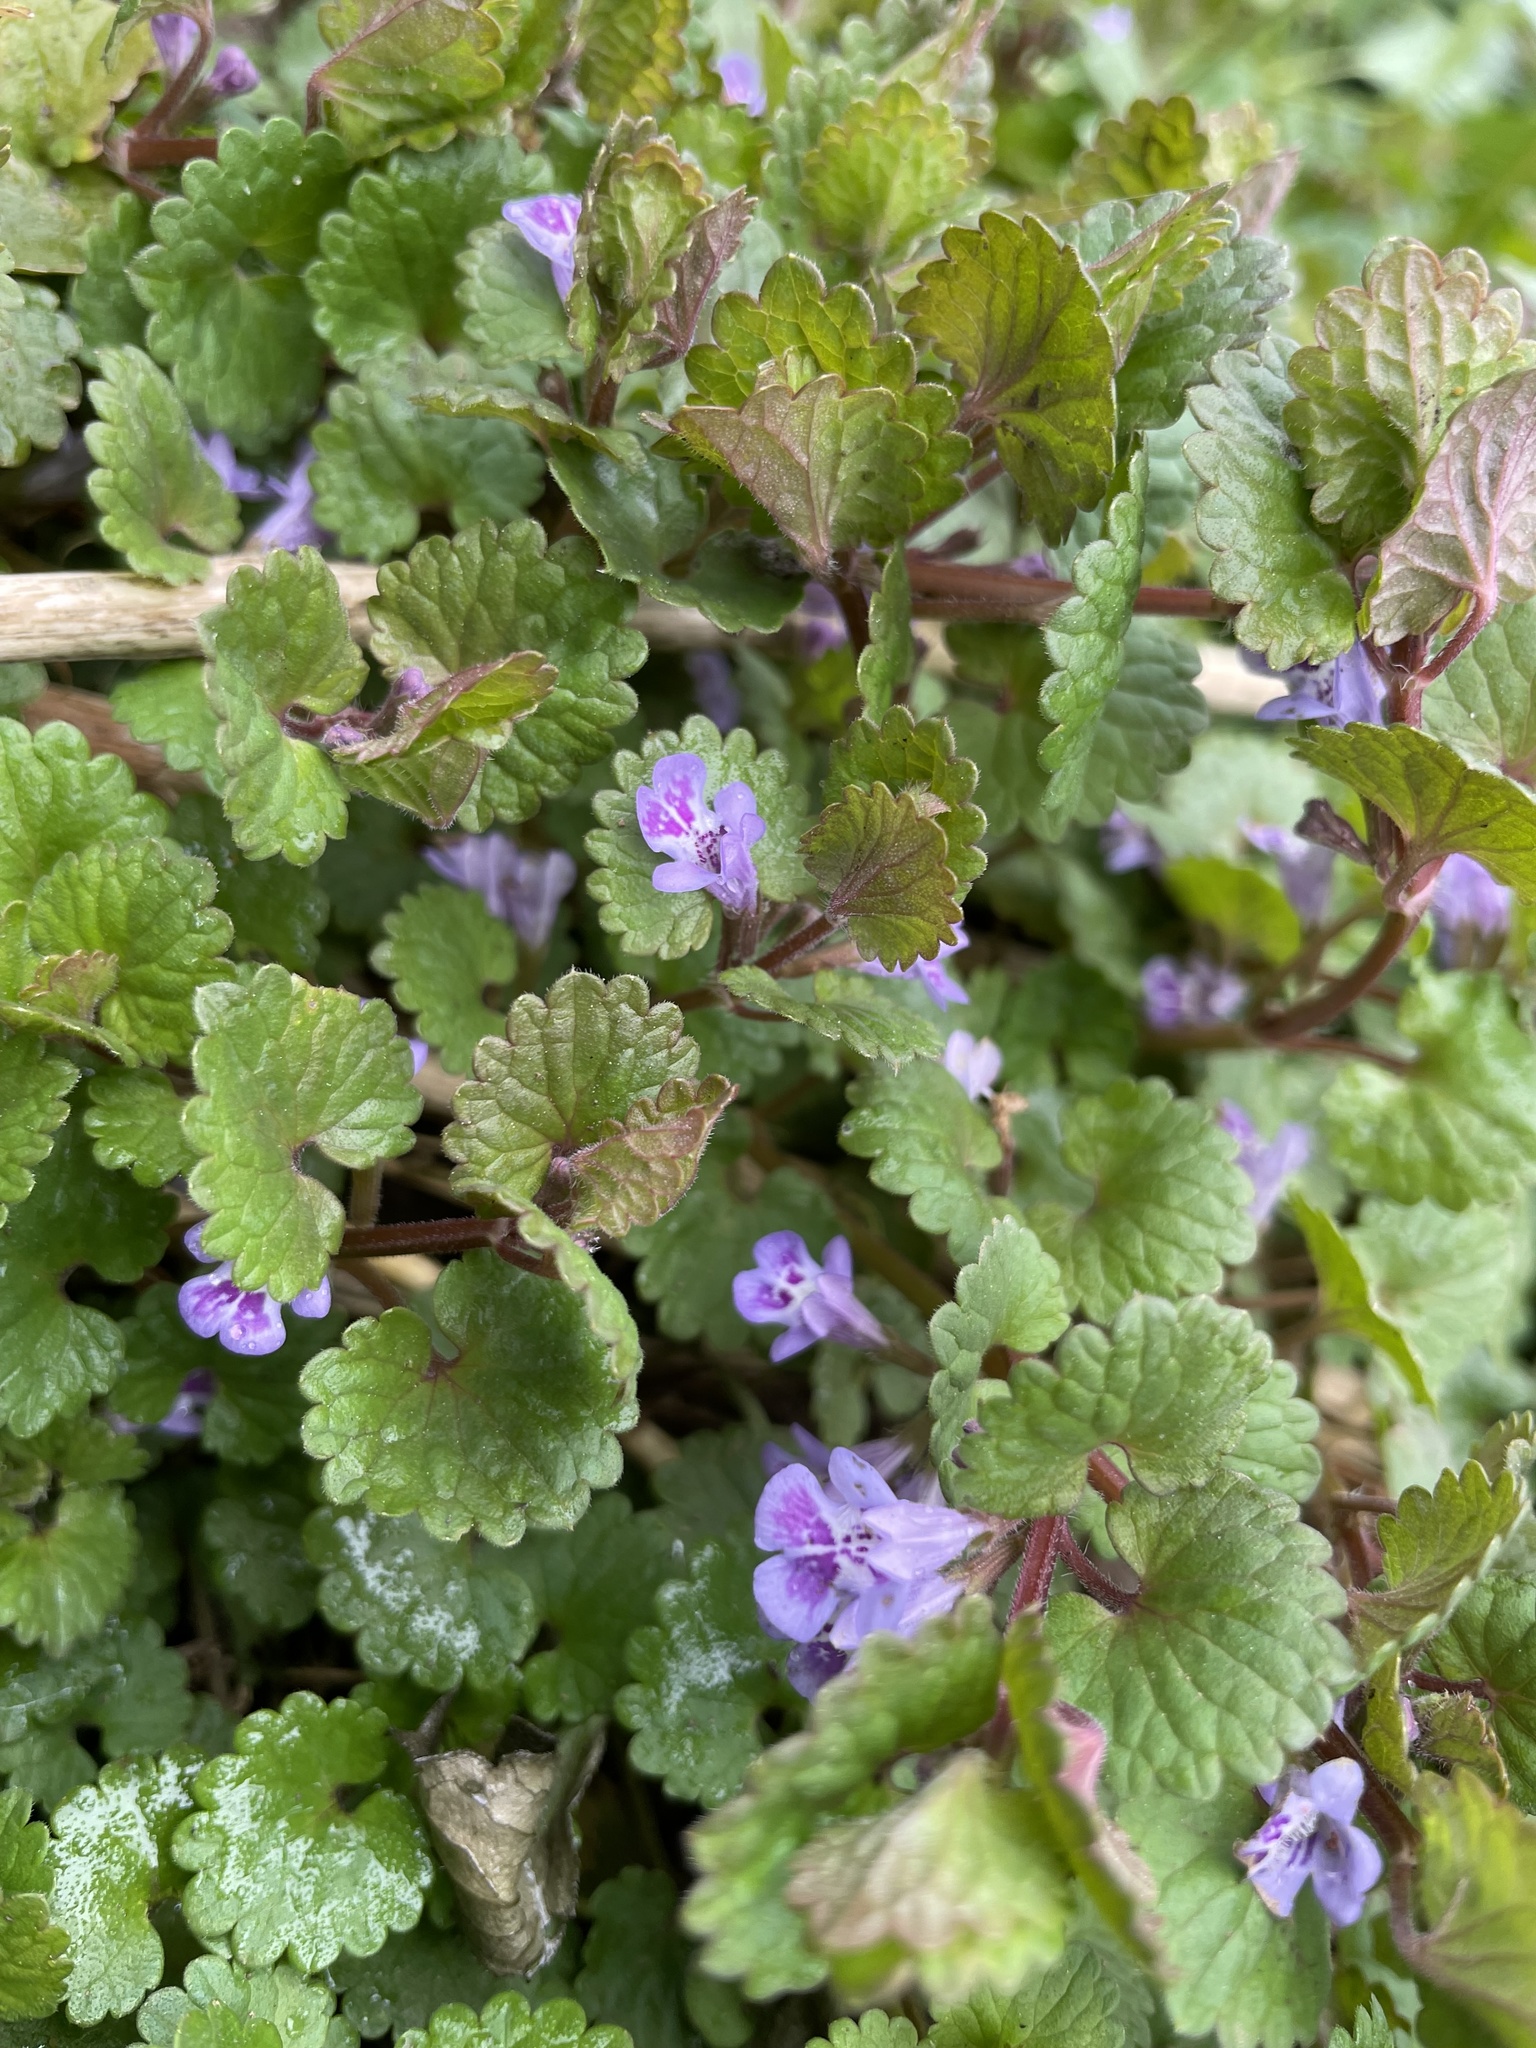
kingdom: Plantae
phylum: Tracheophyta
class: Magnoliopsida
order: Lamiales
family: Lamiaceae
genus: Glechoma
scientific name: Glechoma hederacea
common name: Ground ivy
